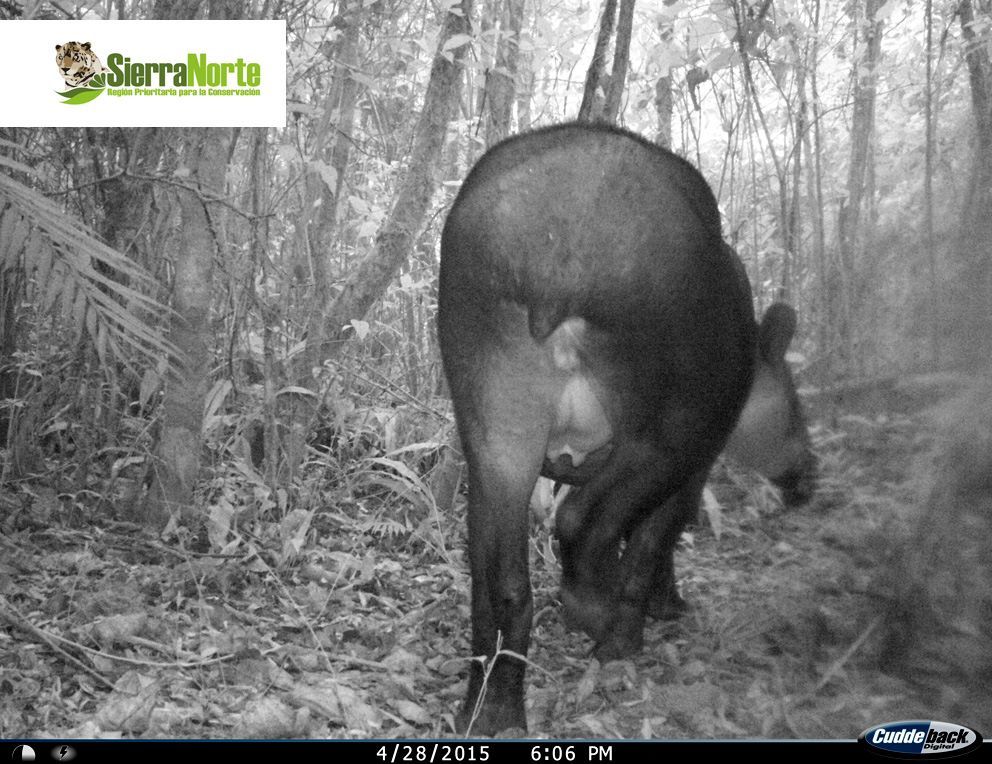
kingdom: Animalia
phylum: Chordata
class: Mammalia
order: Perissodactyla
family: Tapiridae
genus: Tapirella
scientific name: Tapirella bairdii
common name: Baird's tapir
